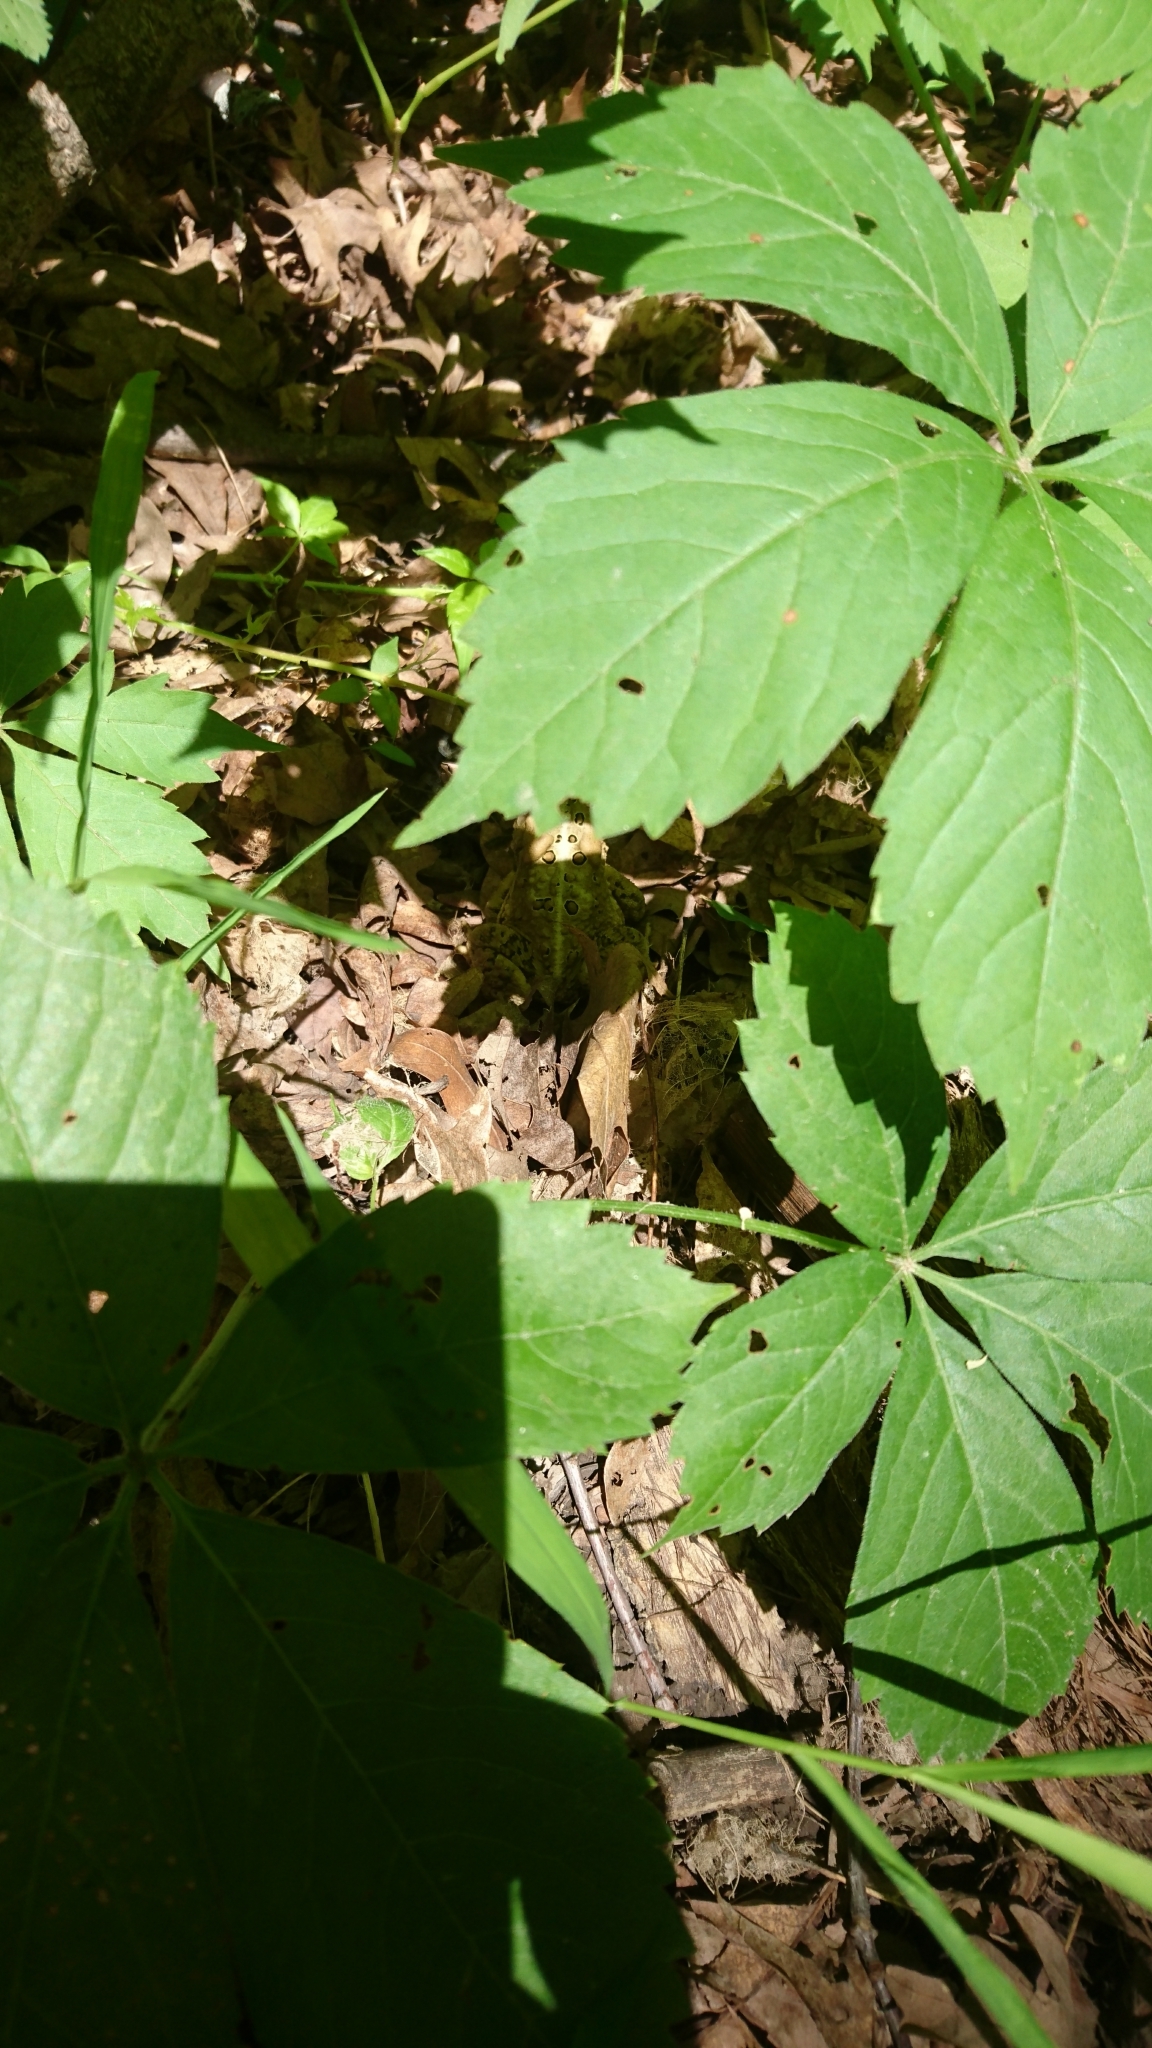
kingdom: Animalia
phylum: Chordata
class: Amphibia
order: Anura
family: Bufonidae
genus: Anaxyrus
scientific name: Anaxyrus americanus
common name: American toad
